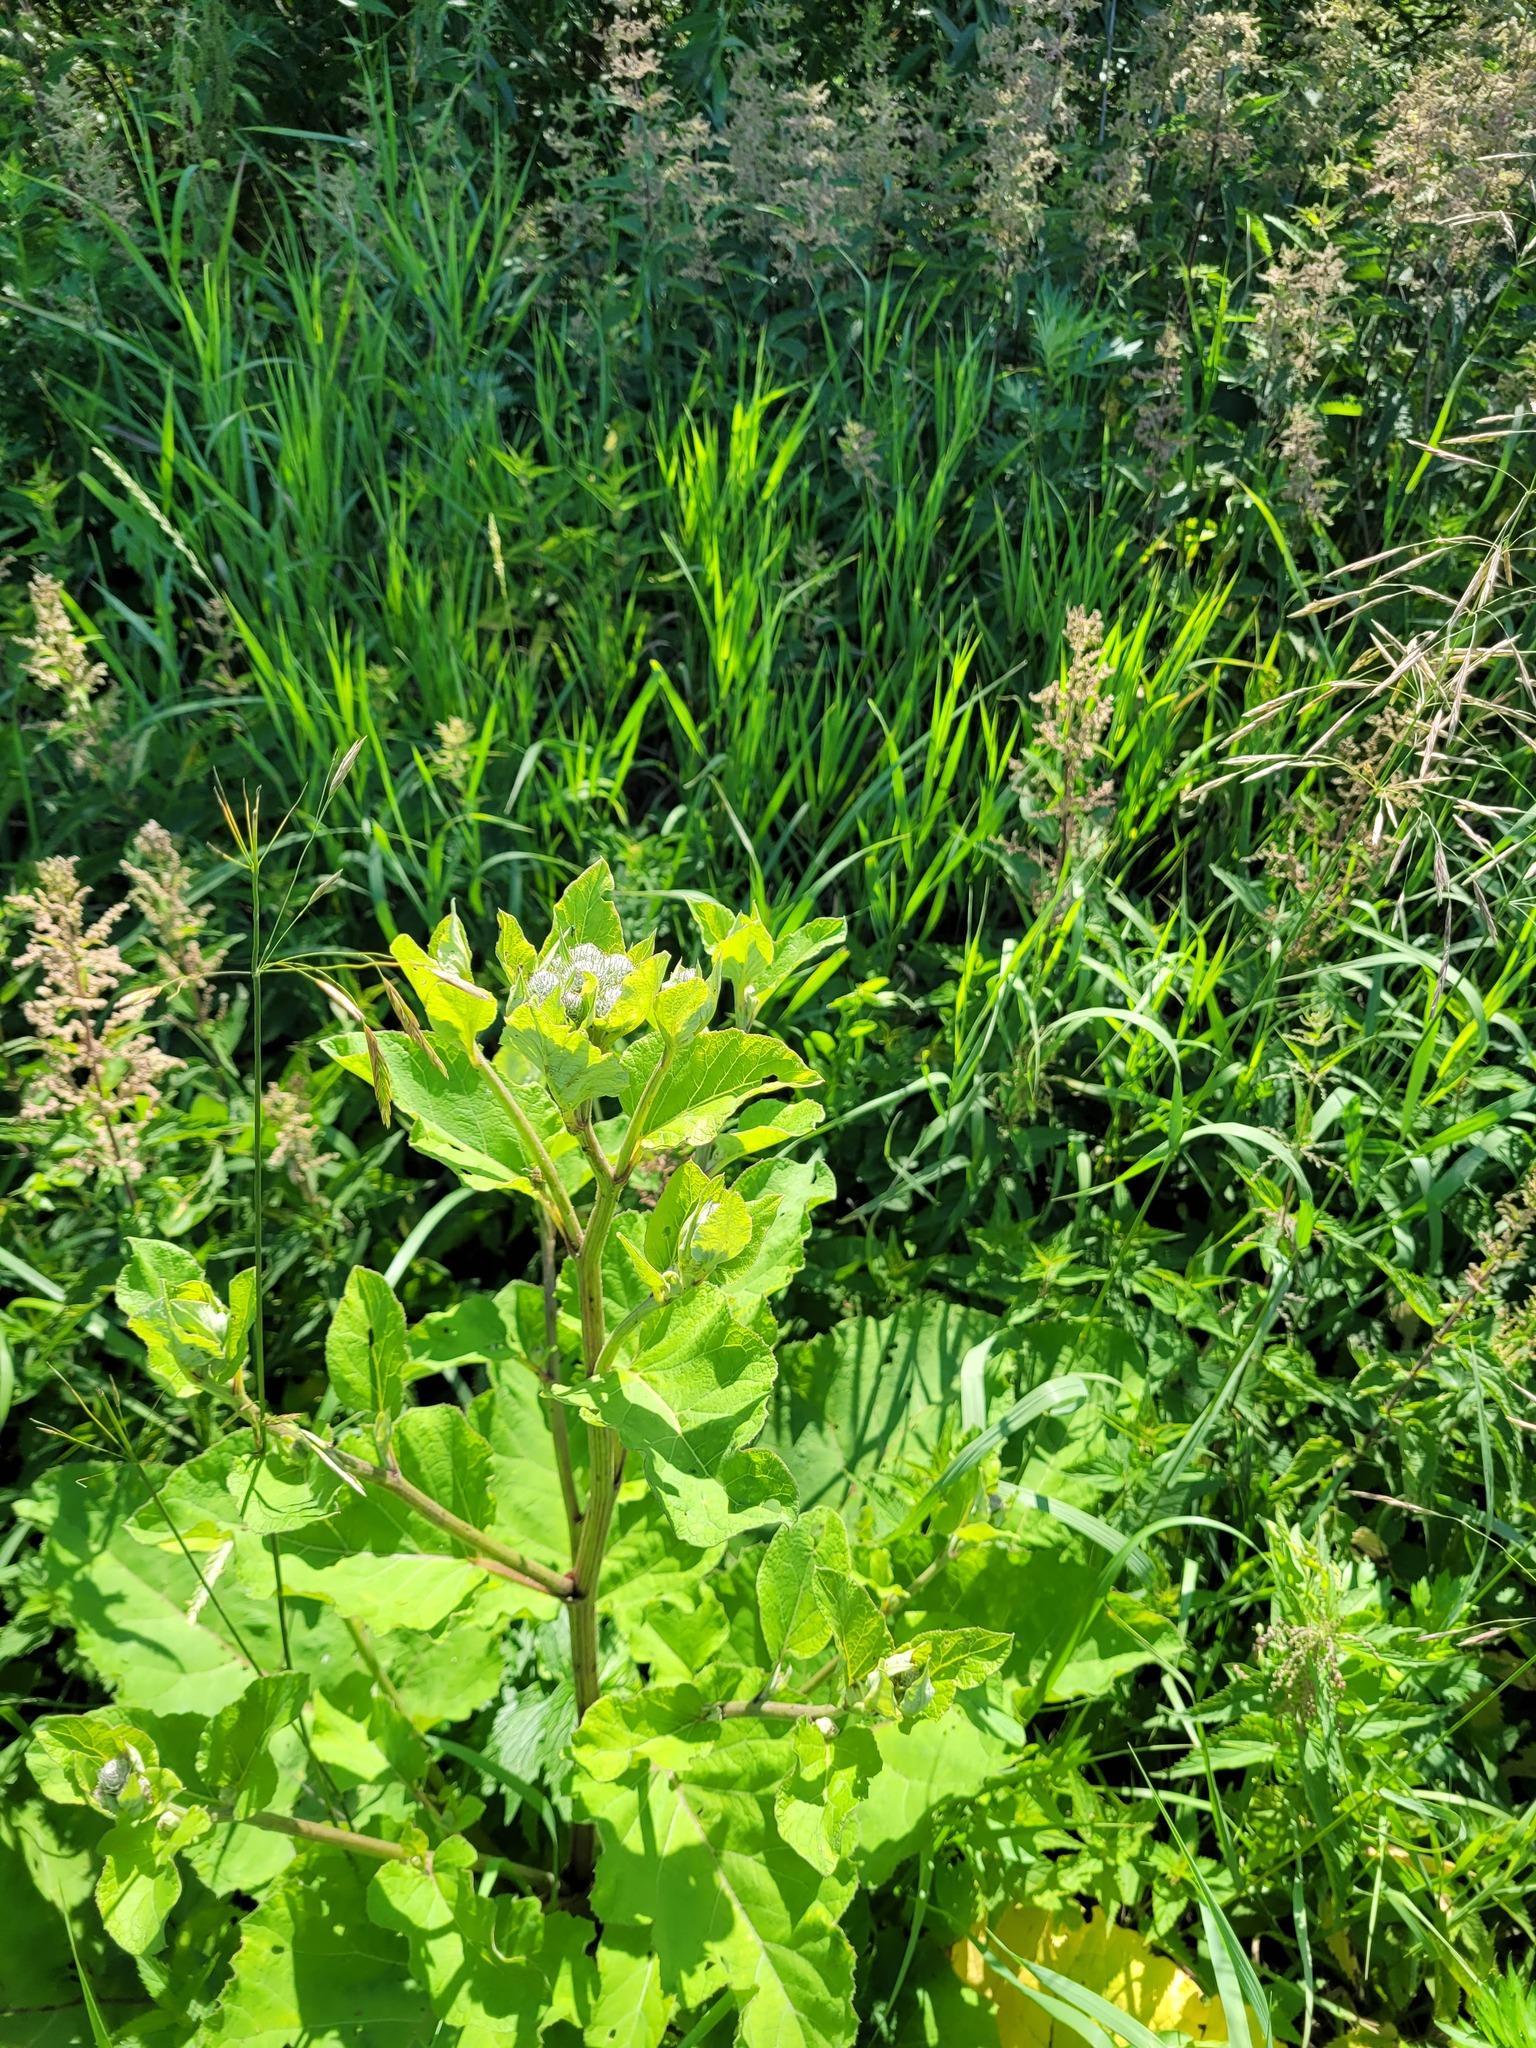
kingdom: Plantae
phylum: Tracheophyta
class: Magnoliopsida
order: Asterales
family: Asteraceae
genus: Arctium
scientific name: Arctium tomentosum
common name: Woolly burdock
